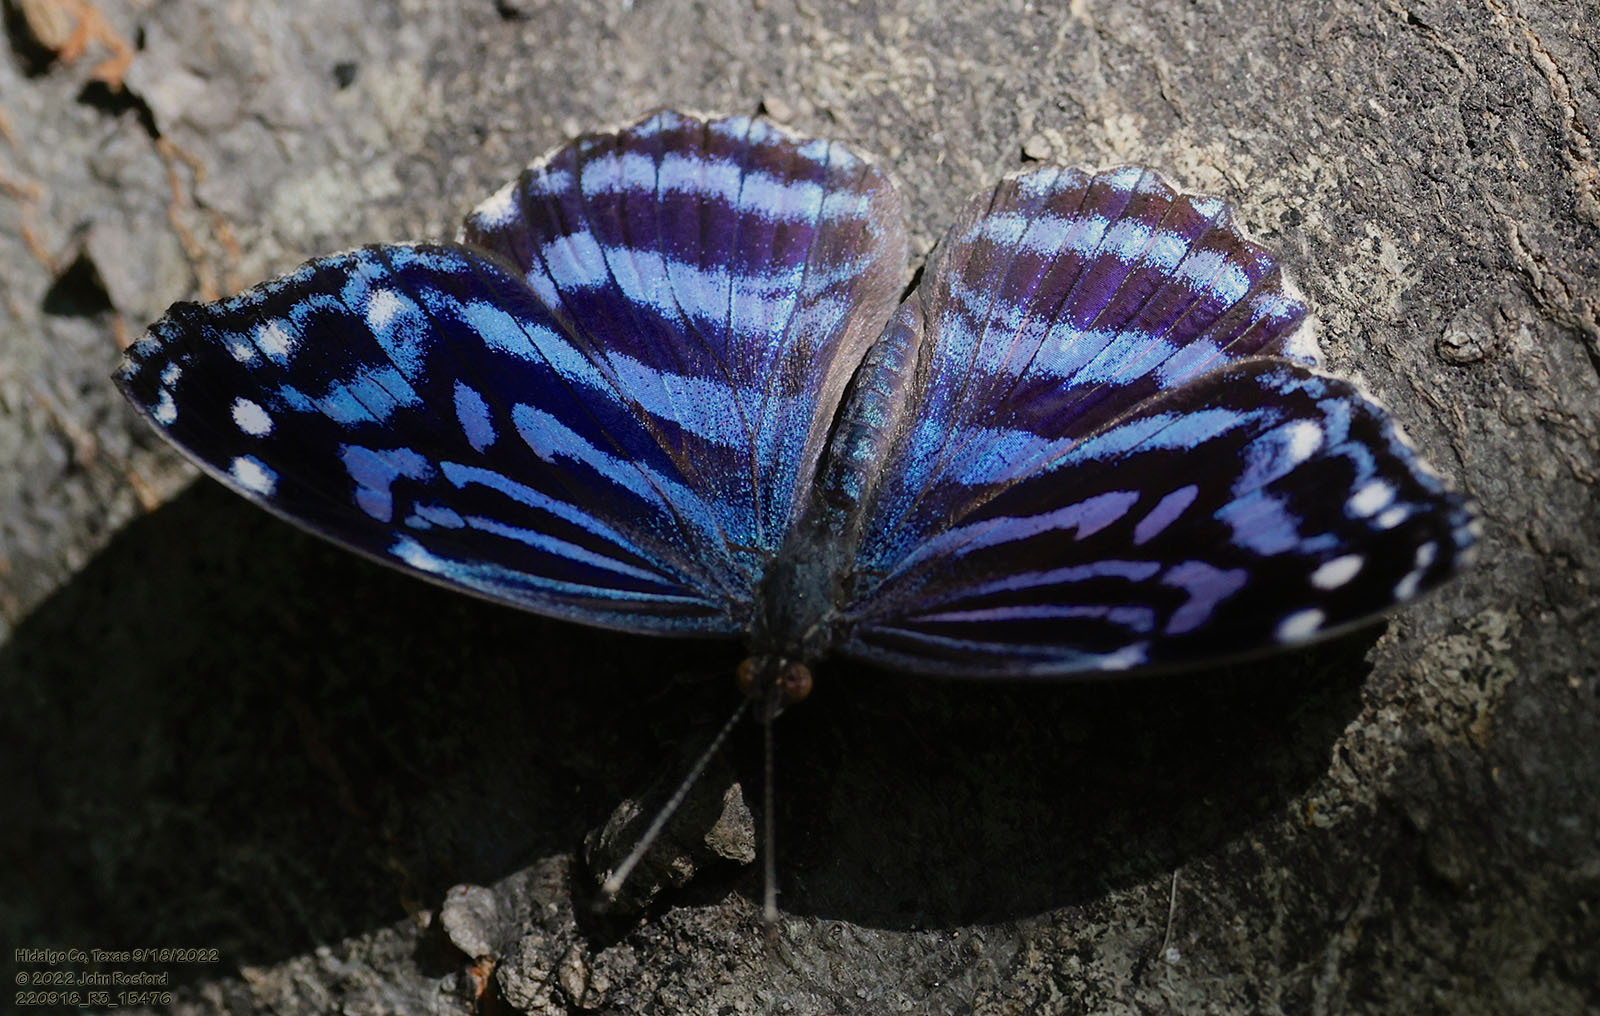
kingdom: Animalia
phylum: Arthropoda
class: Insecta
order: Lepidoptera
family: Nymphalidae
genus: Myscelia
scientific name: Myscelia ethusa
